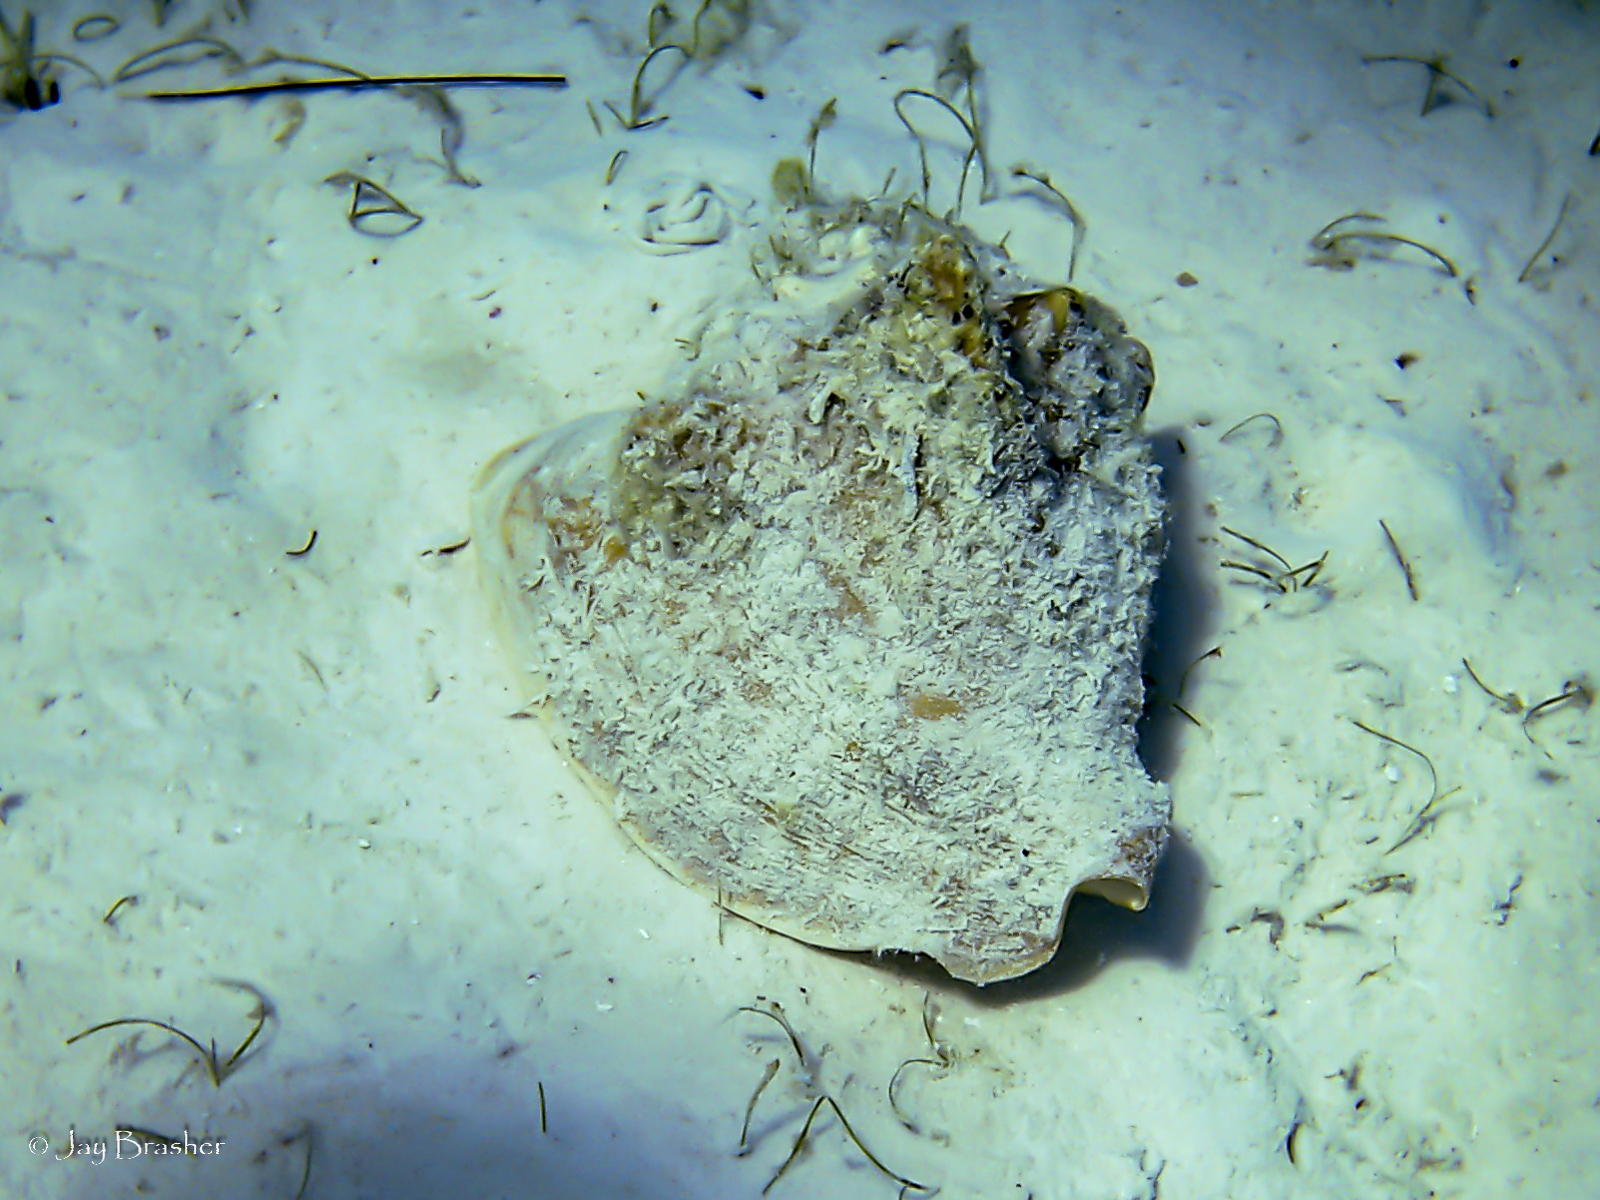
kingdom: Animalia
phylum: Mollusca
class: Gastropoda
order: Littorinimorpha
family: Strombidae
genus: Macrostrombus
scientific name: Macrostrombus costatus
